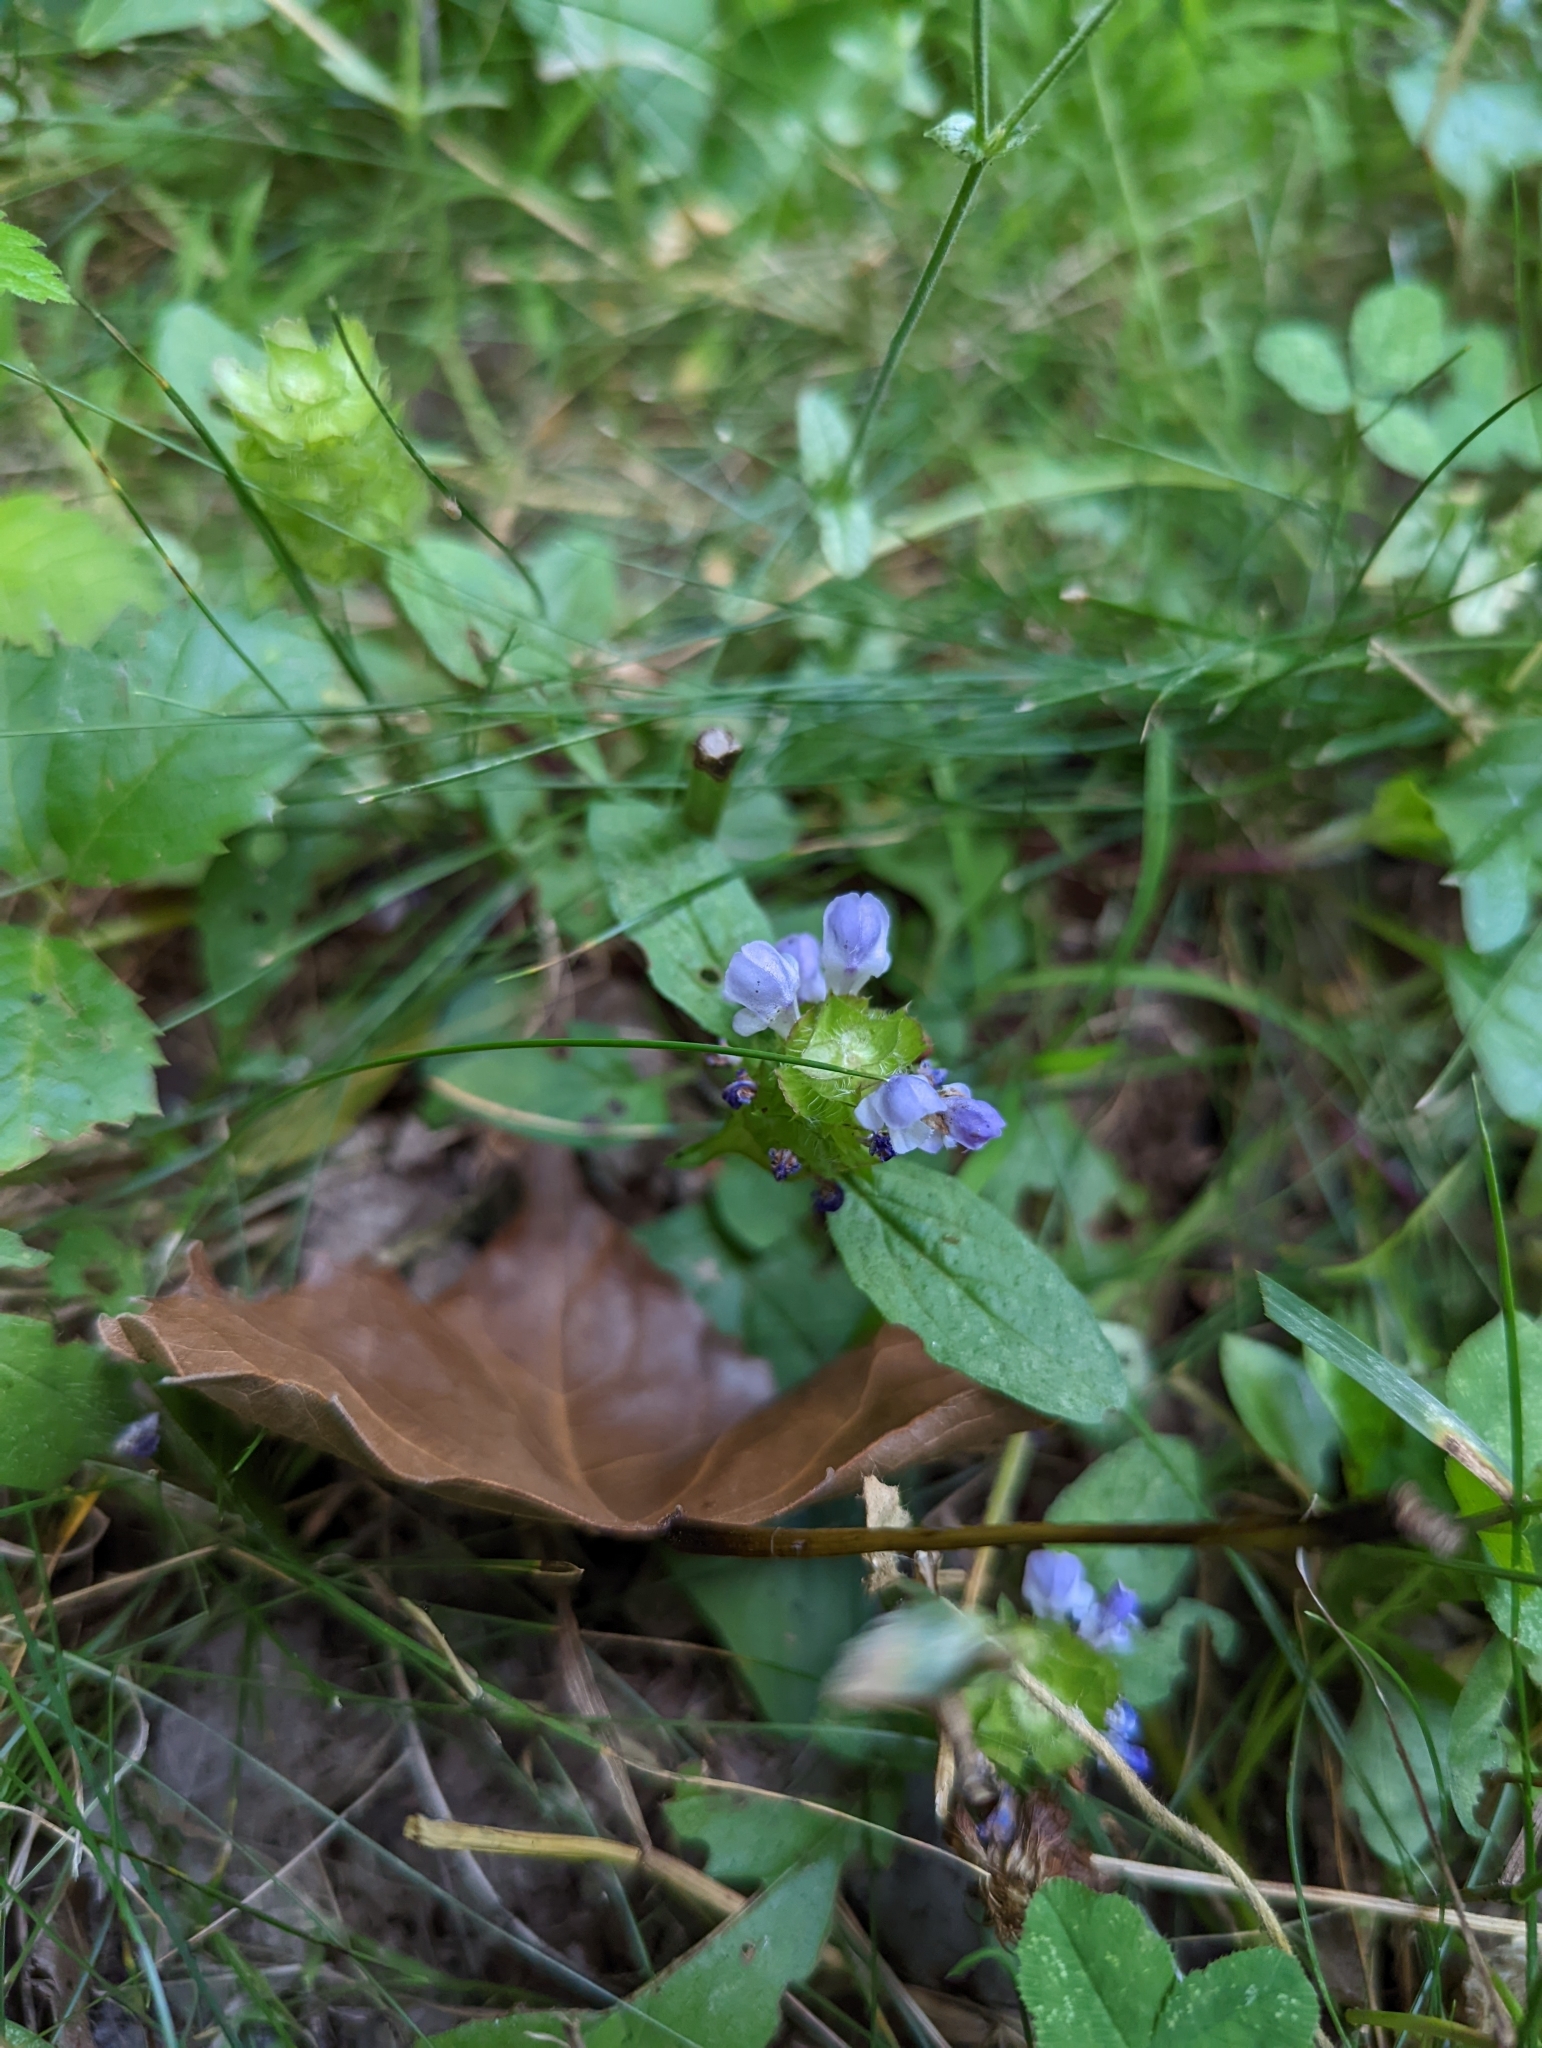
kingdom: Plantae
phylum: Tracheophyta
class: Magnoliopsida
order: Lamiales
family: Lamiaceae
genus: Prunella
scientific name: Prunella vulgaris
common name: Heal-all
